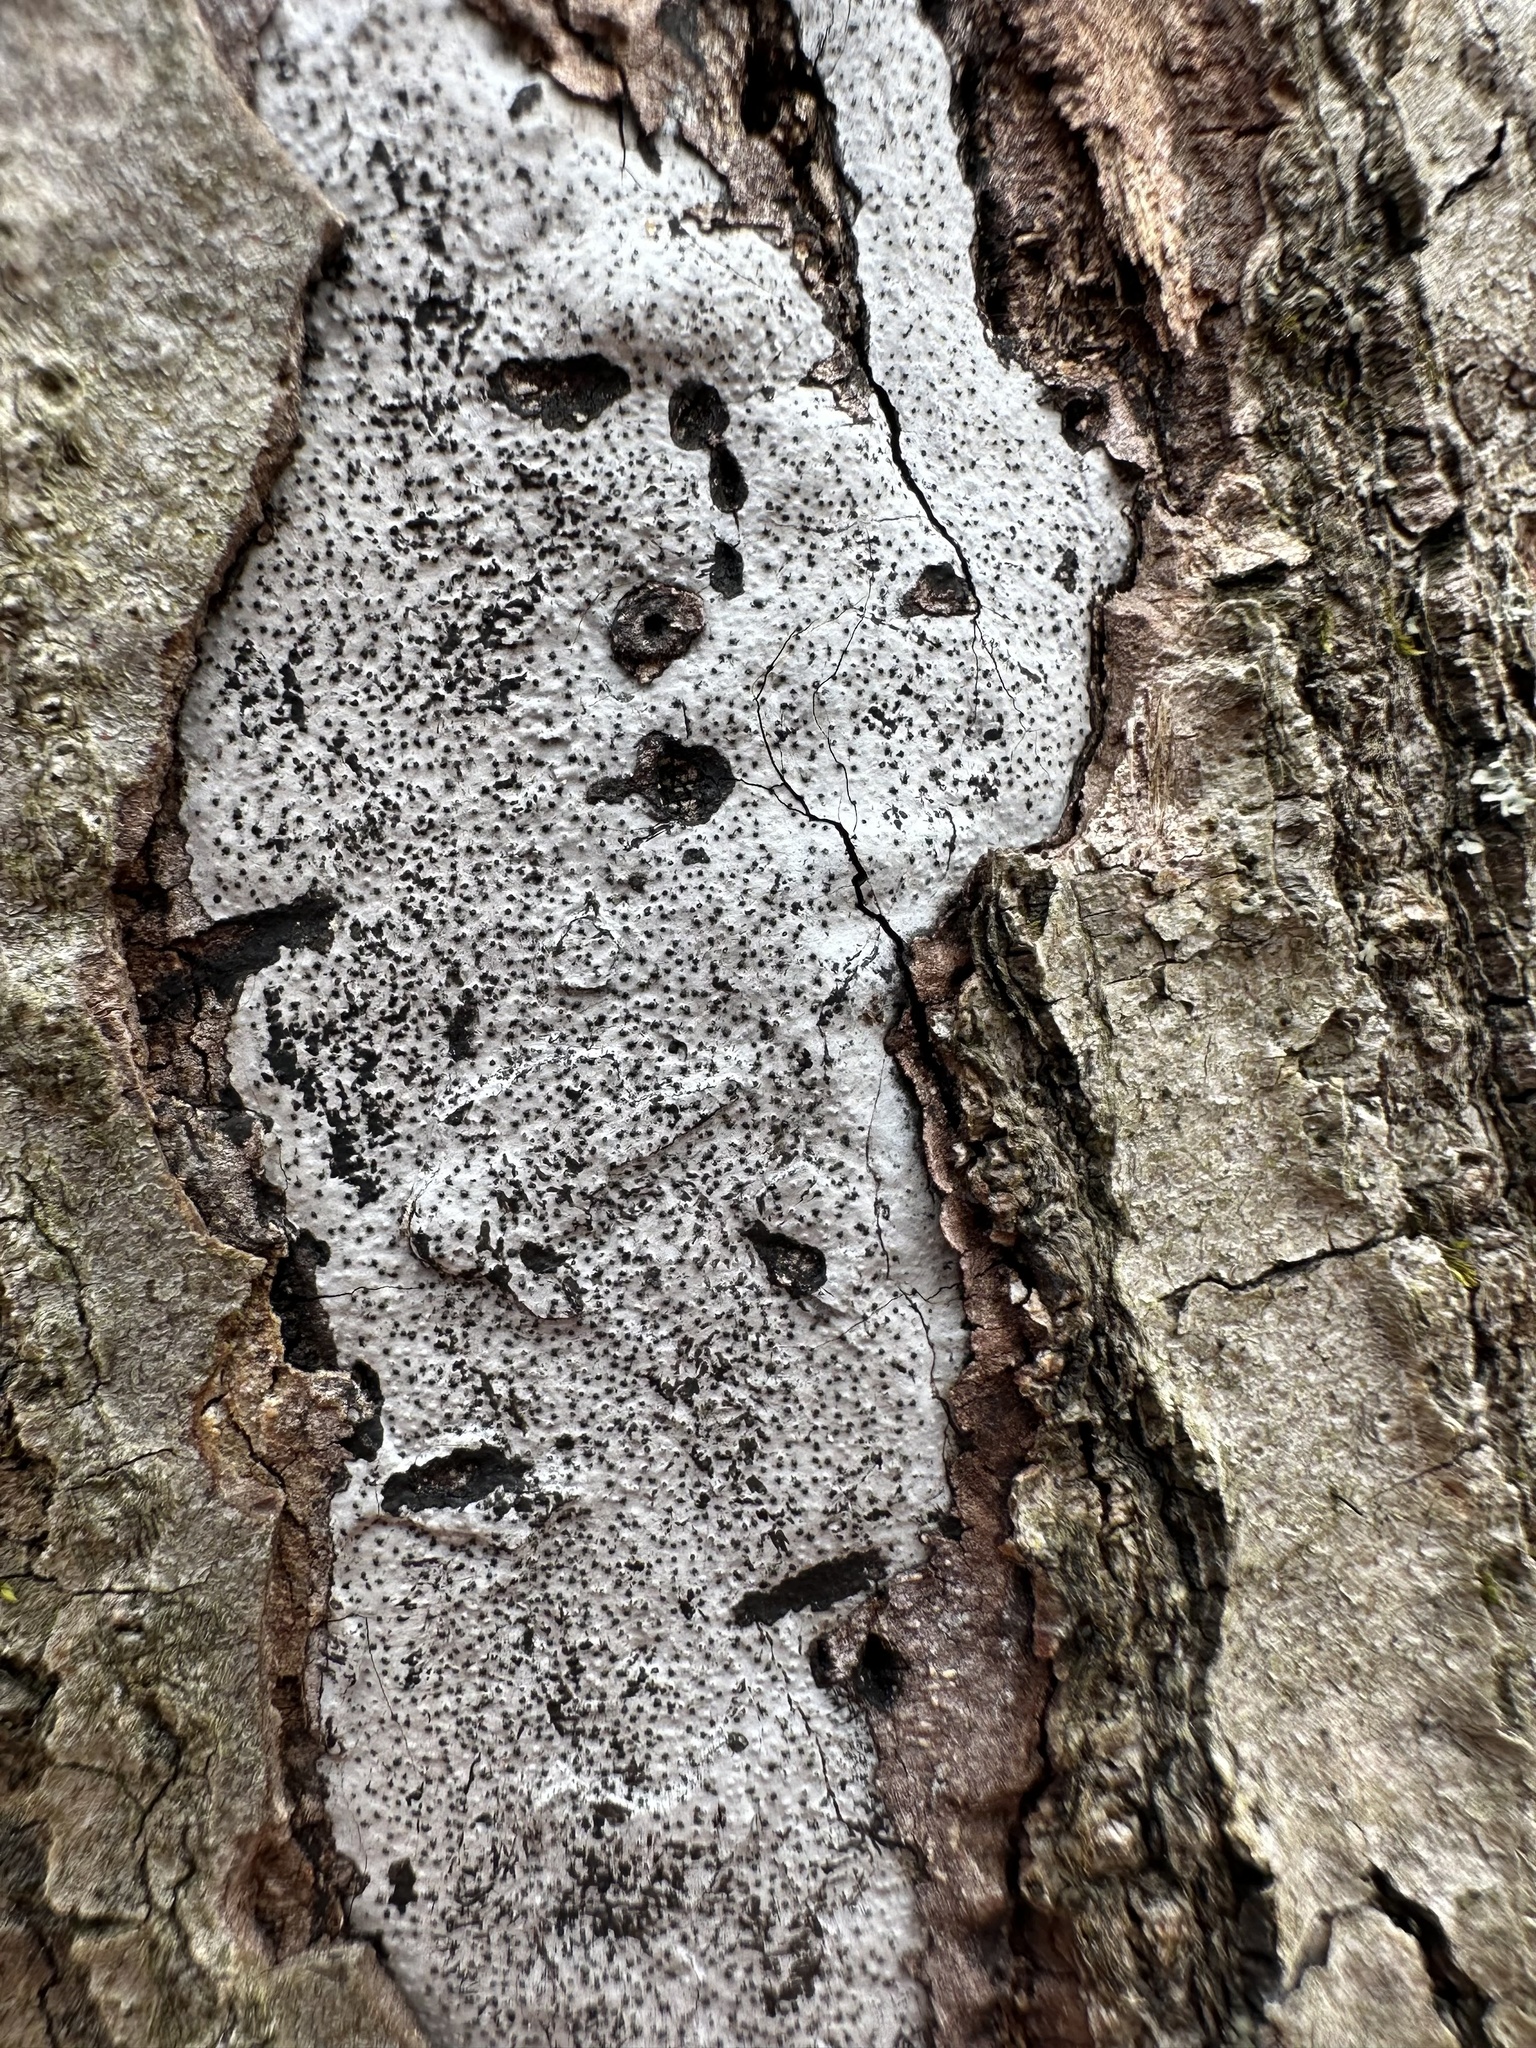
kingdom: Fungi
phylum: Ascomycota
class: Sordariomycetes
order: Xylariales
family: Graphostromataceae
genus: Biscogniauxia
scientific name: Biscogniauxia atropunctata
